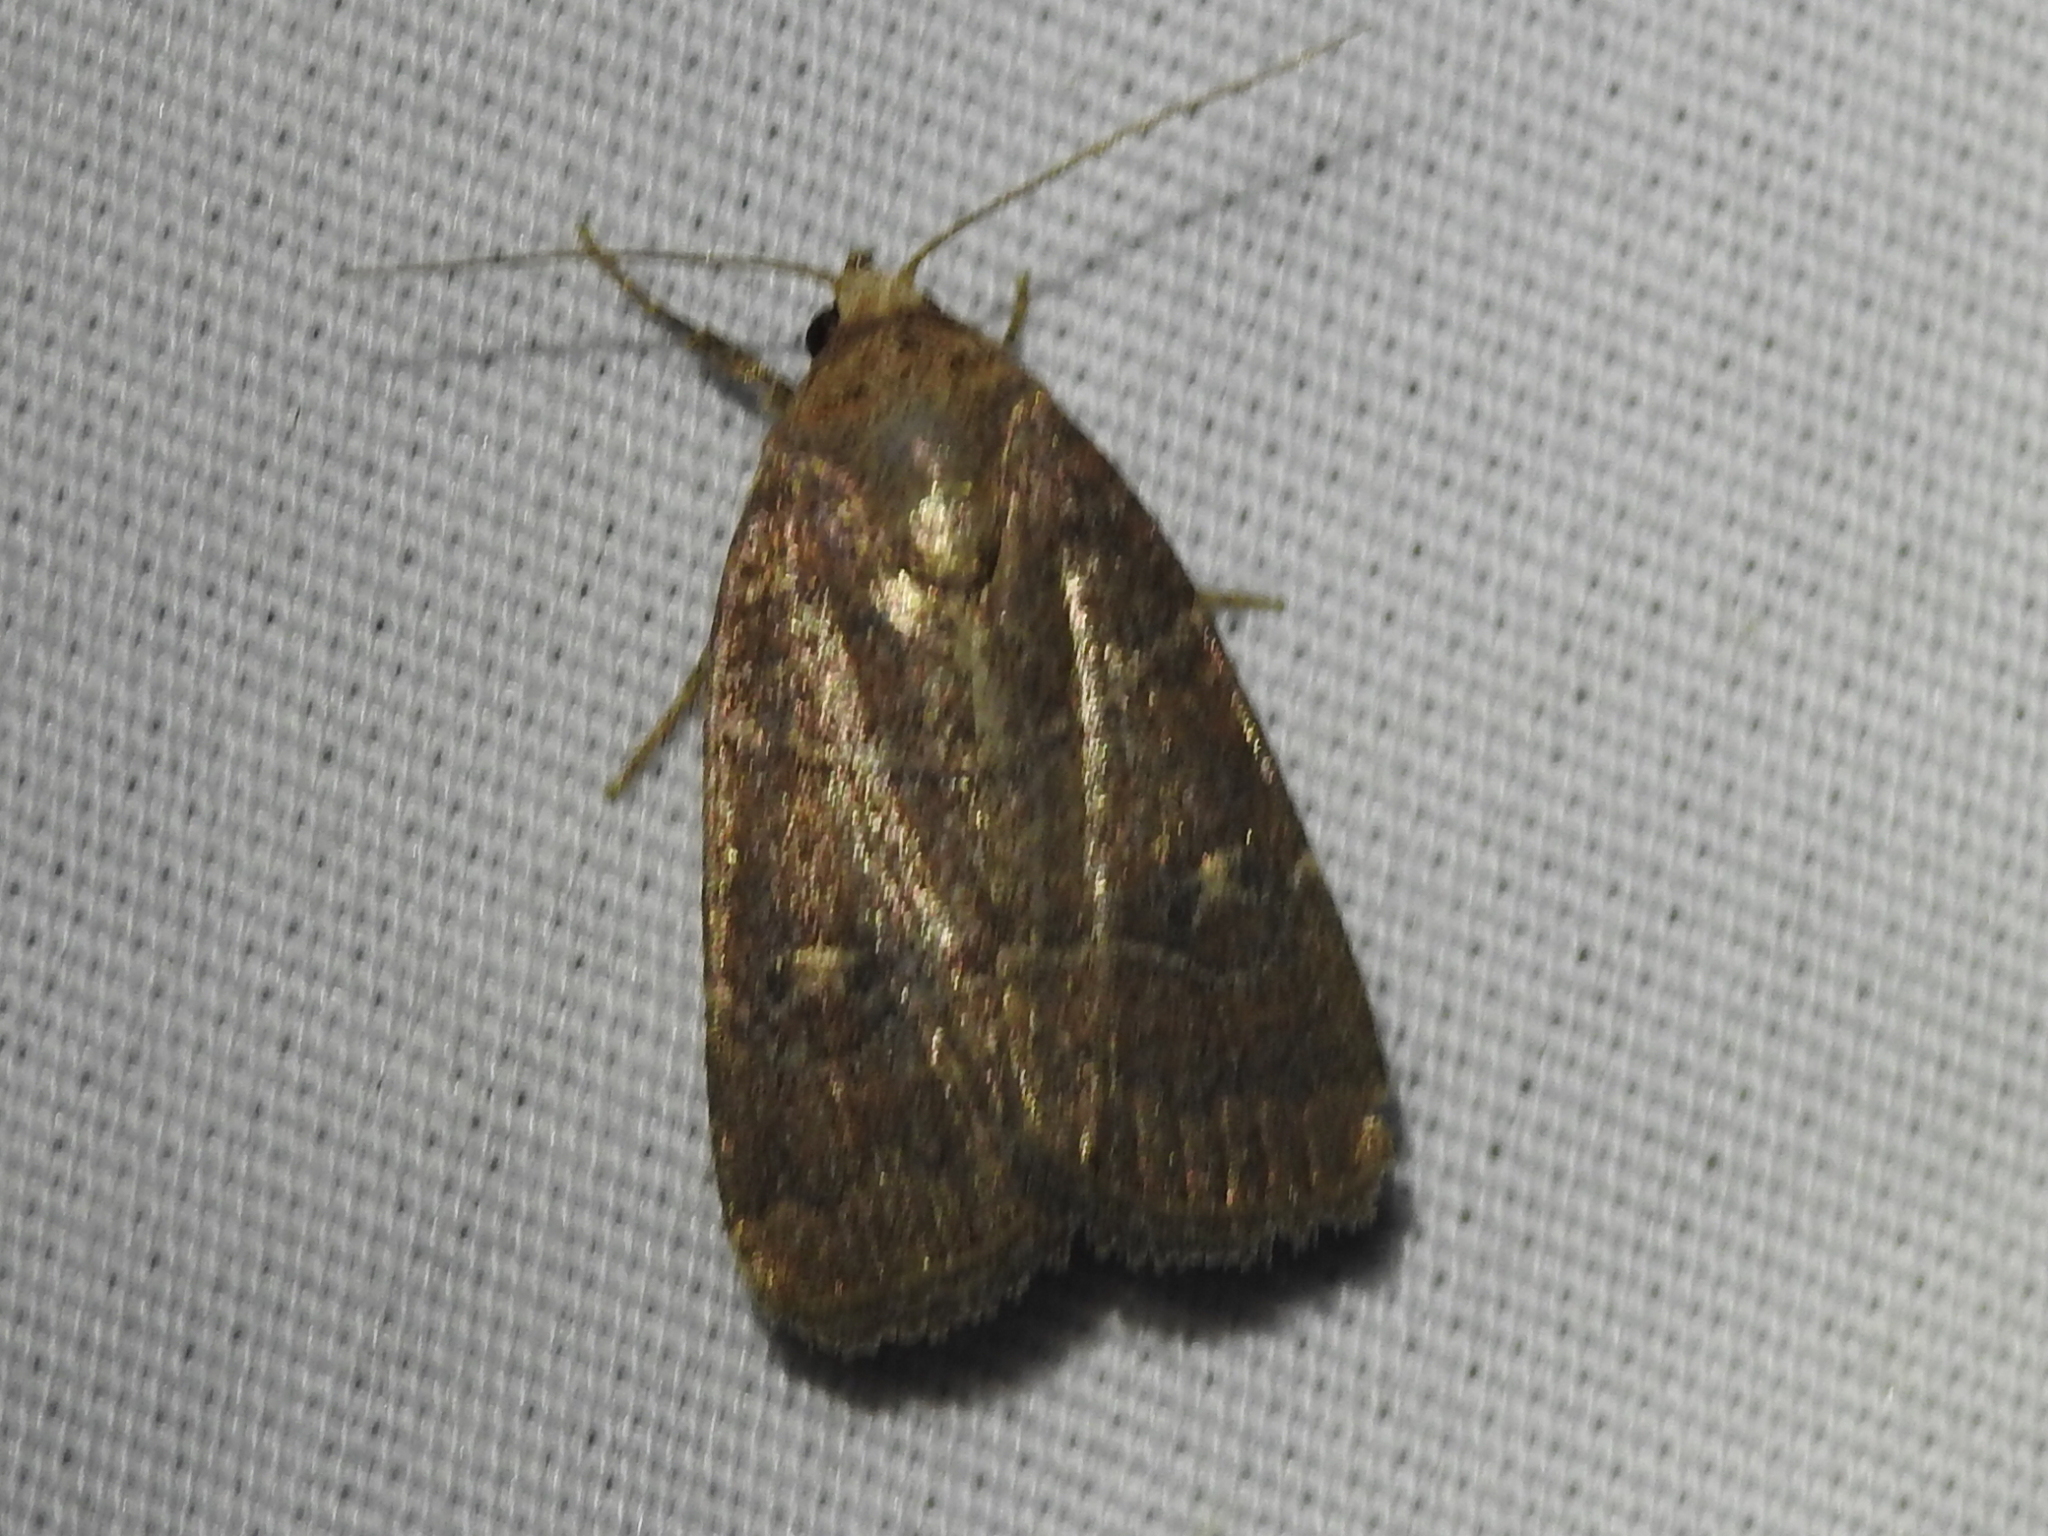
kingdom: Animalia
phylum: Arthropoda
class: Insecta
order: Lepidoptera
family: Noctuidae
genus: Elaphria
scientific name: Elaphria grata
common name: Grateful midget moth
